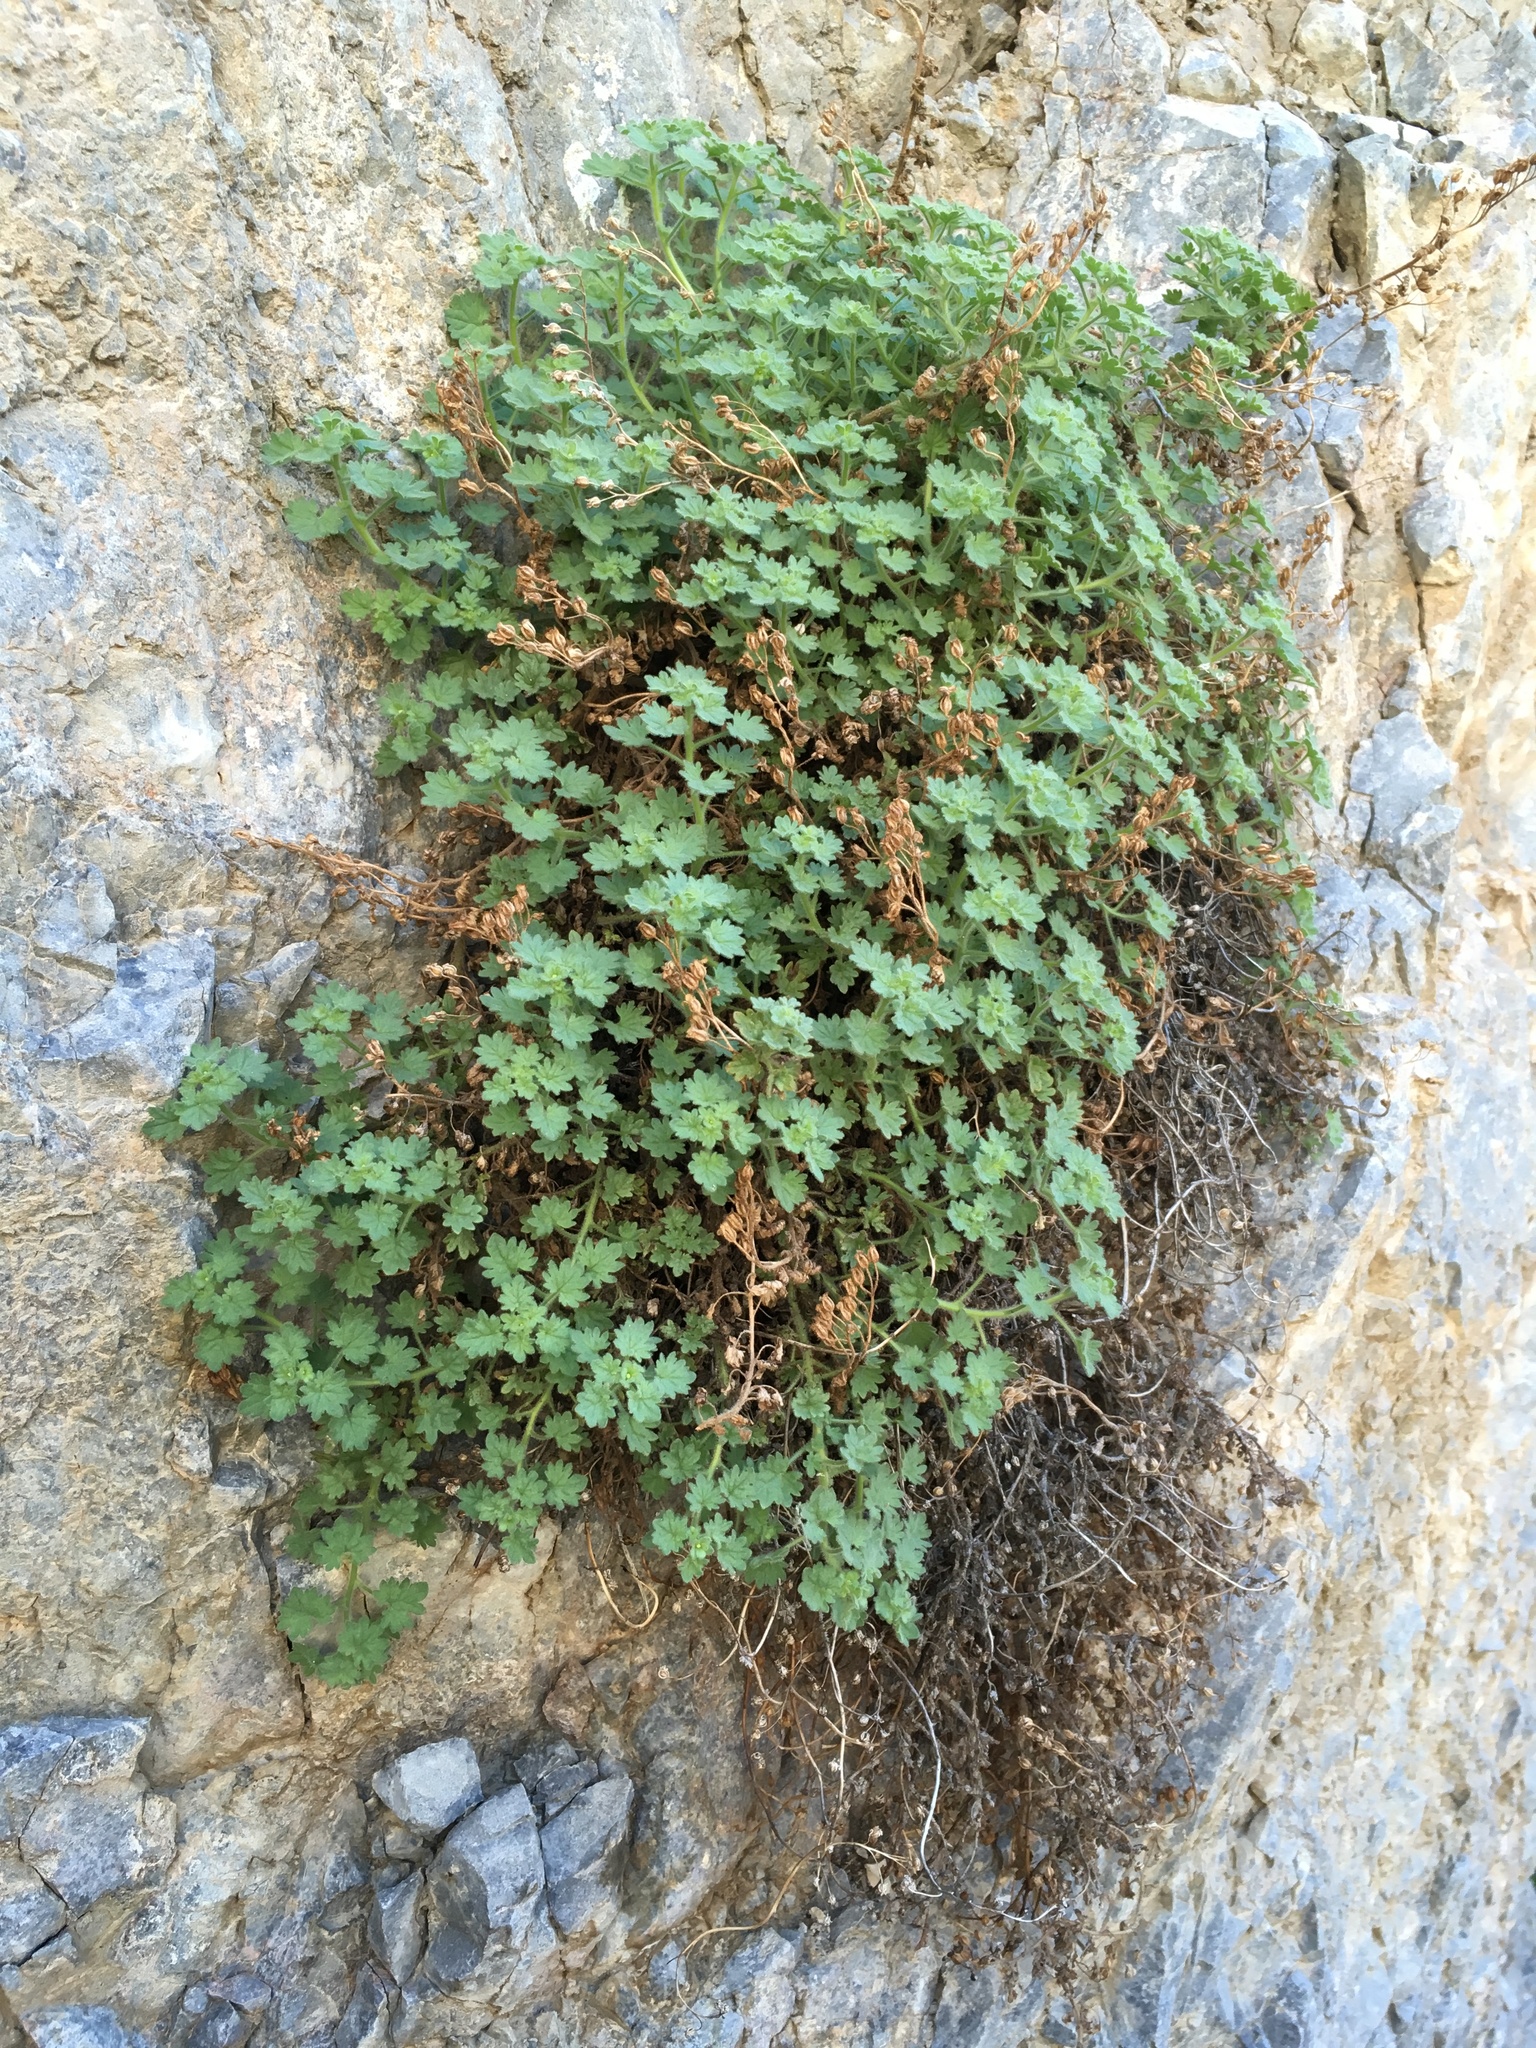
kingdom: Plantae
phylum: Tracheophyta
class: Magnoliopsida
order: Boraginales
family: Hydrophyllaceae
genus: Phacelia
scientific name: Phacelia perityloides
